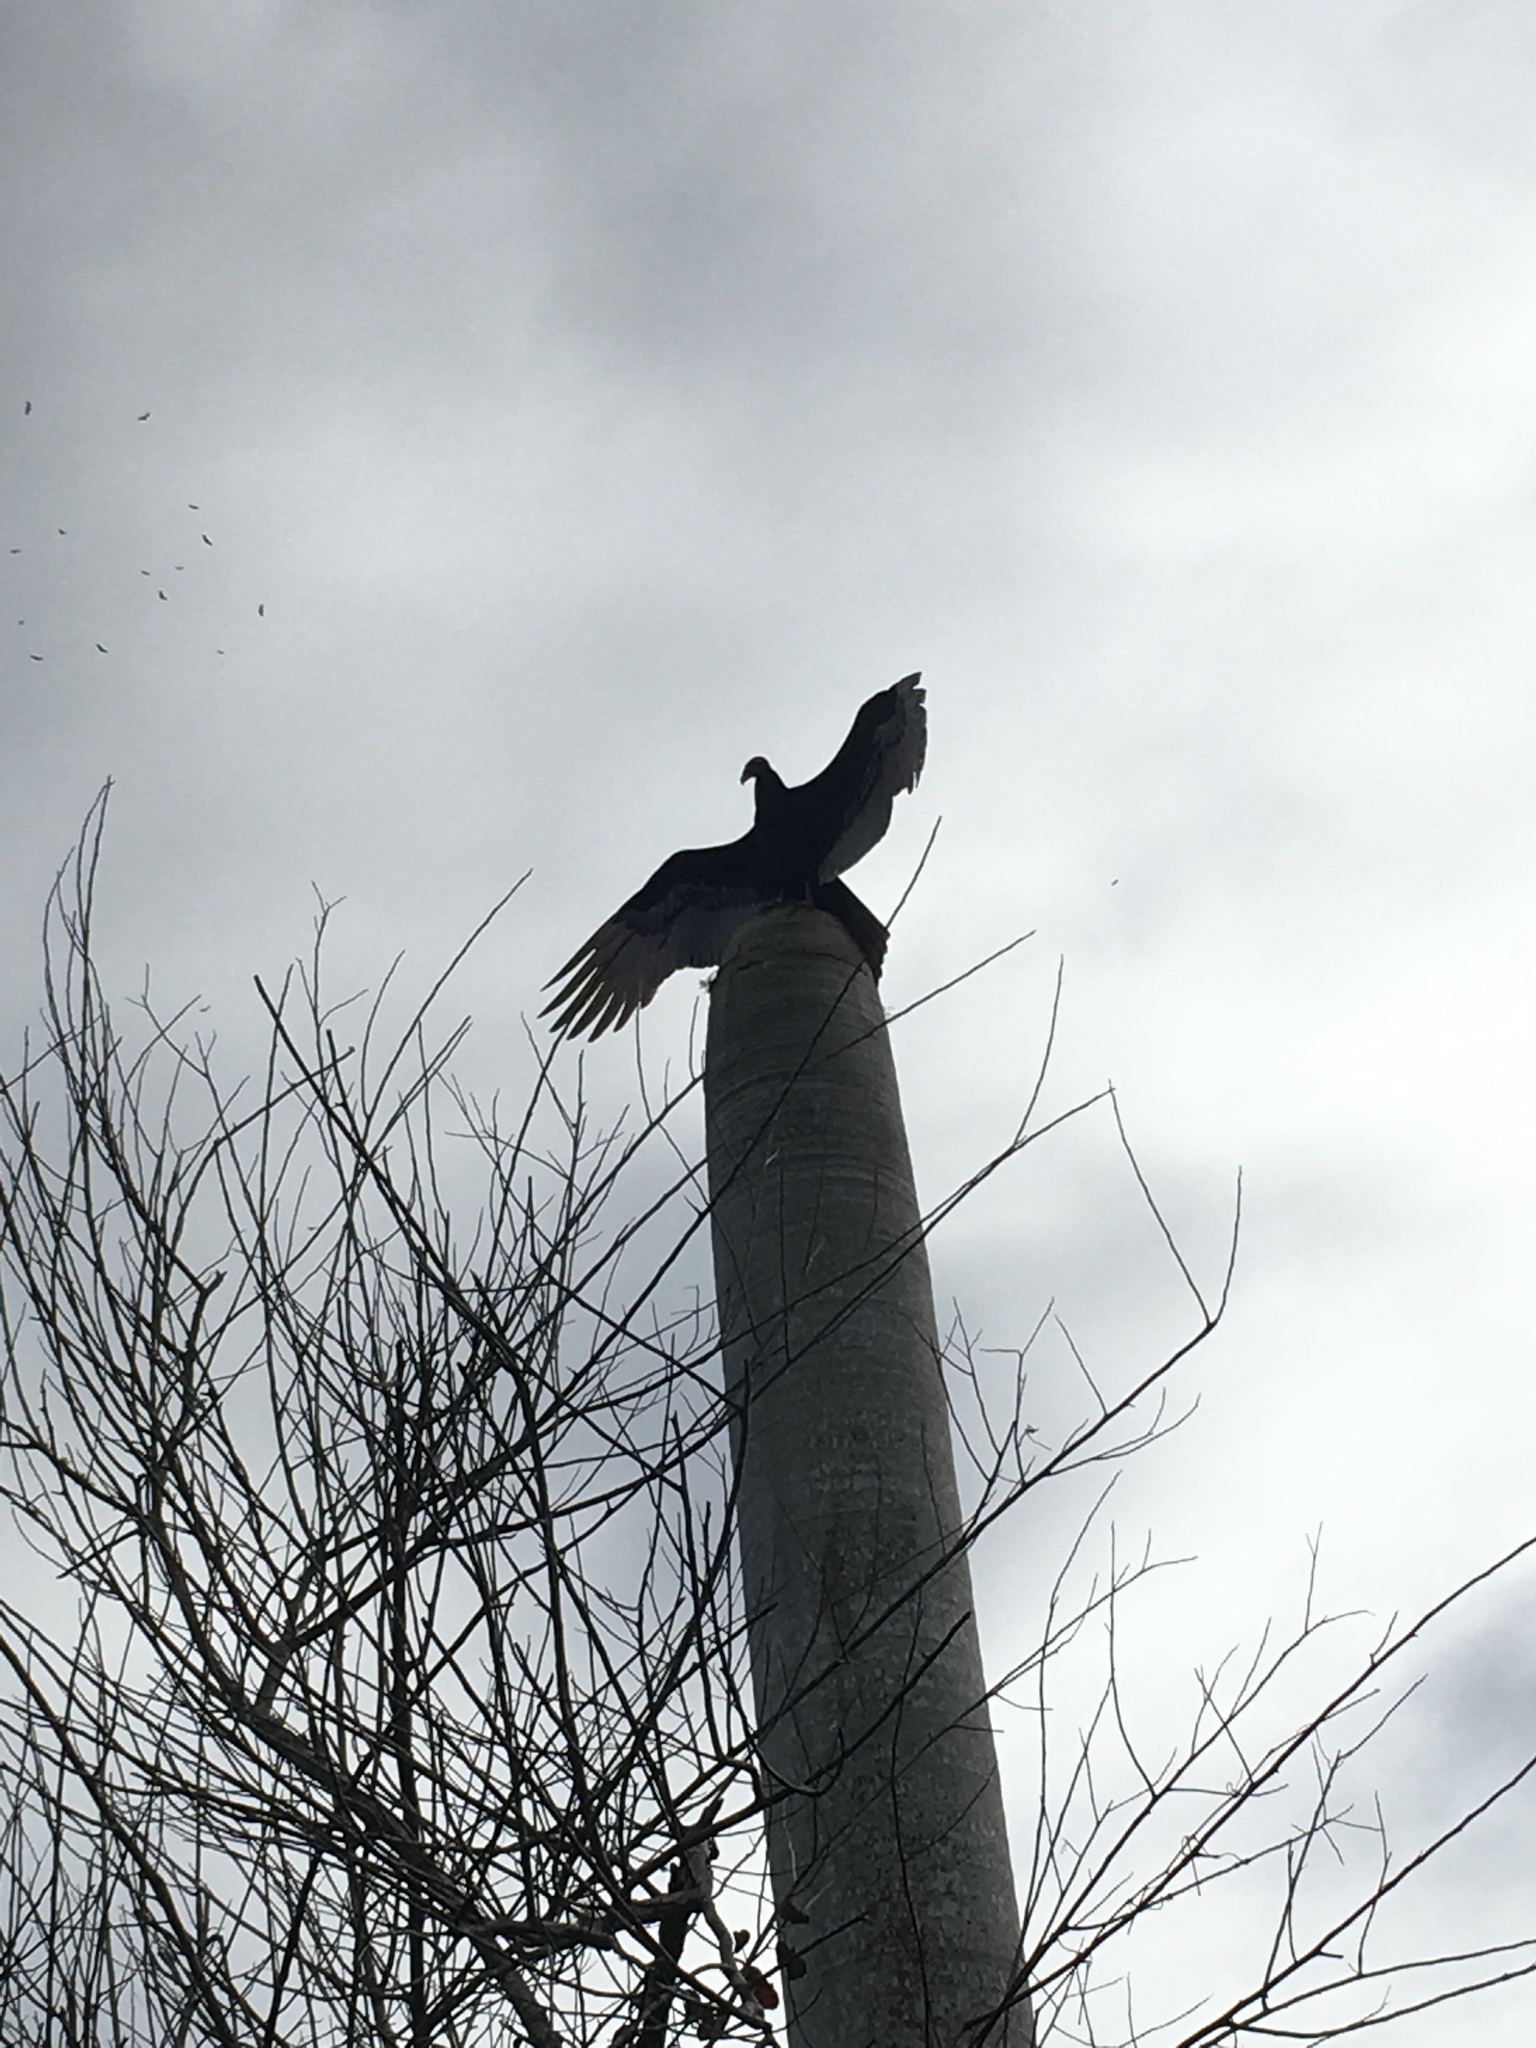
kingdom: Animalia
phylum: Chordata
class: Aves
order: Accipitriformes
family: Cathartidae
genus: Cathartes
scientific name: Cathartes aura
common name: Turkey vulture
